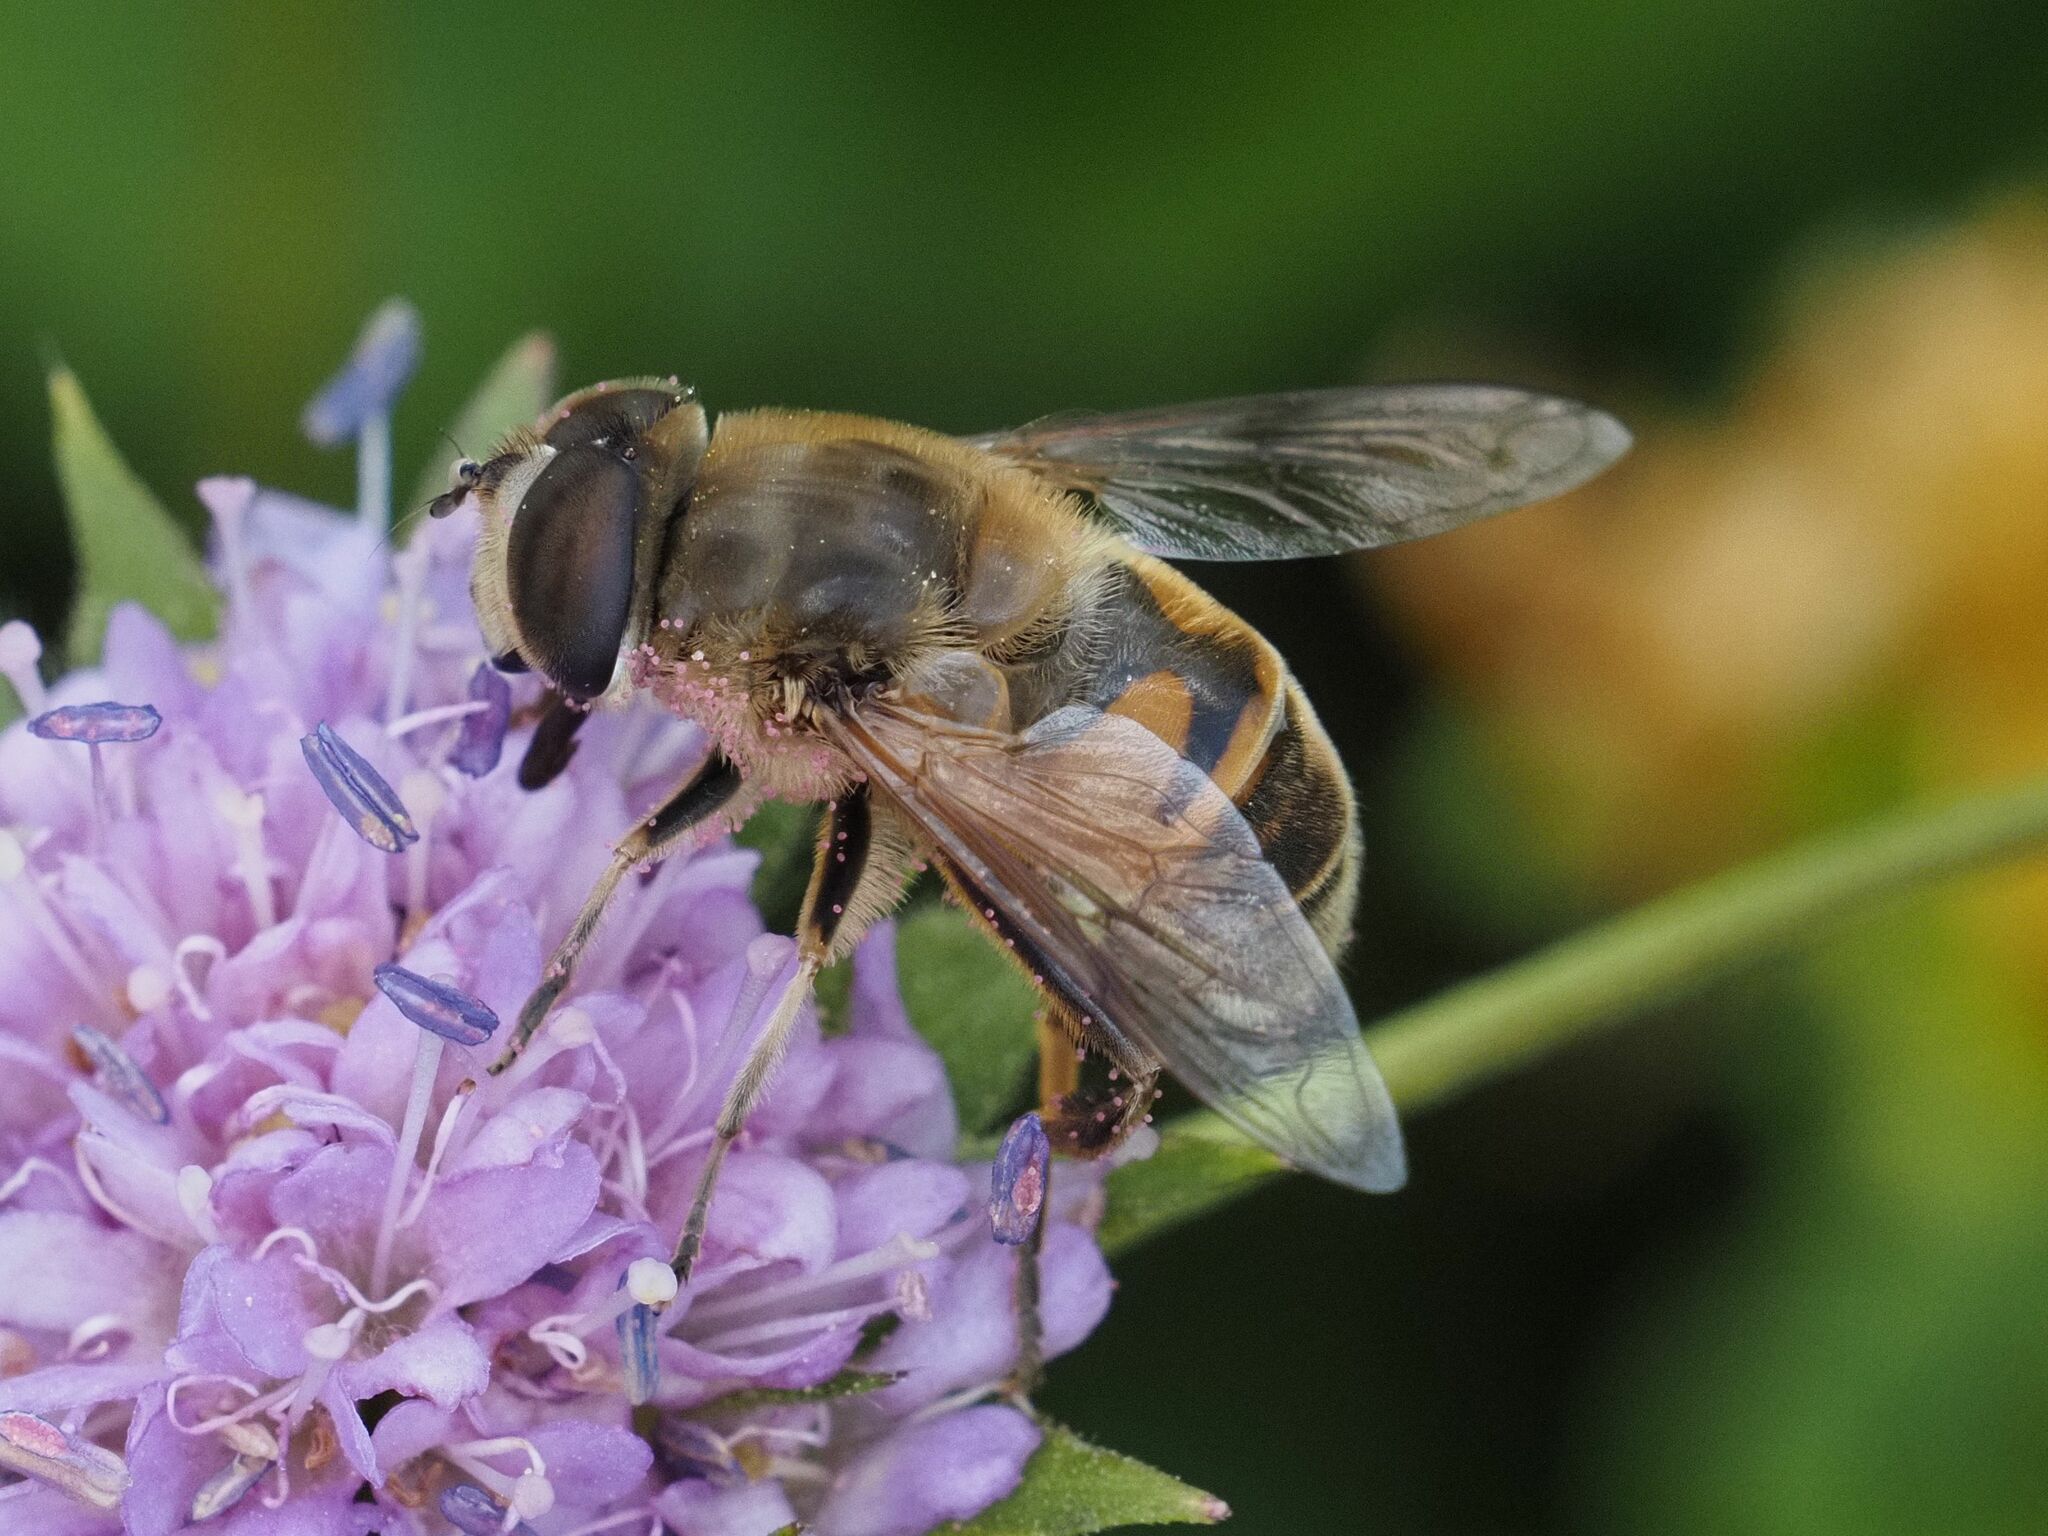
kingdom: Animalia
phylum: Arthropoda
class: Insecta
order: Diptera
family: Syrphidae
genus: Eristalis
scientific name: Eristalis tenax
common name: Drone fly
